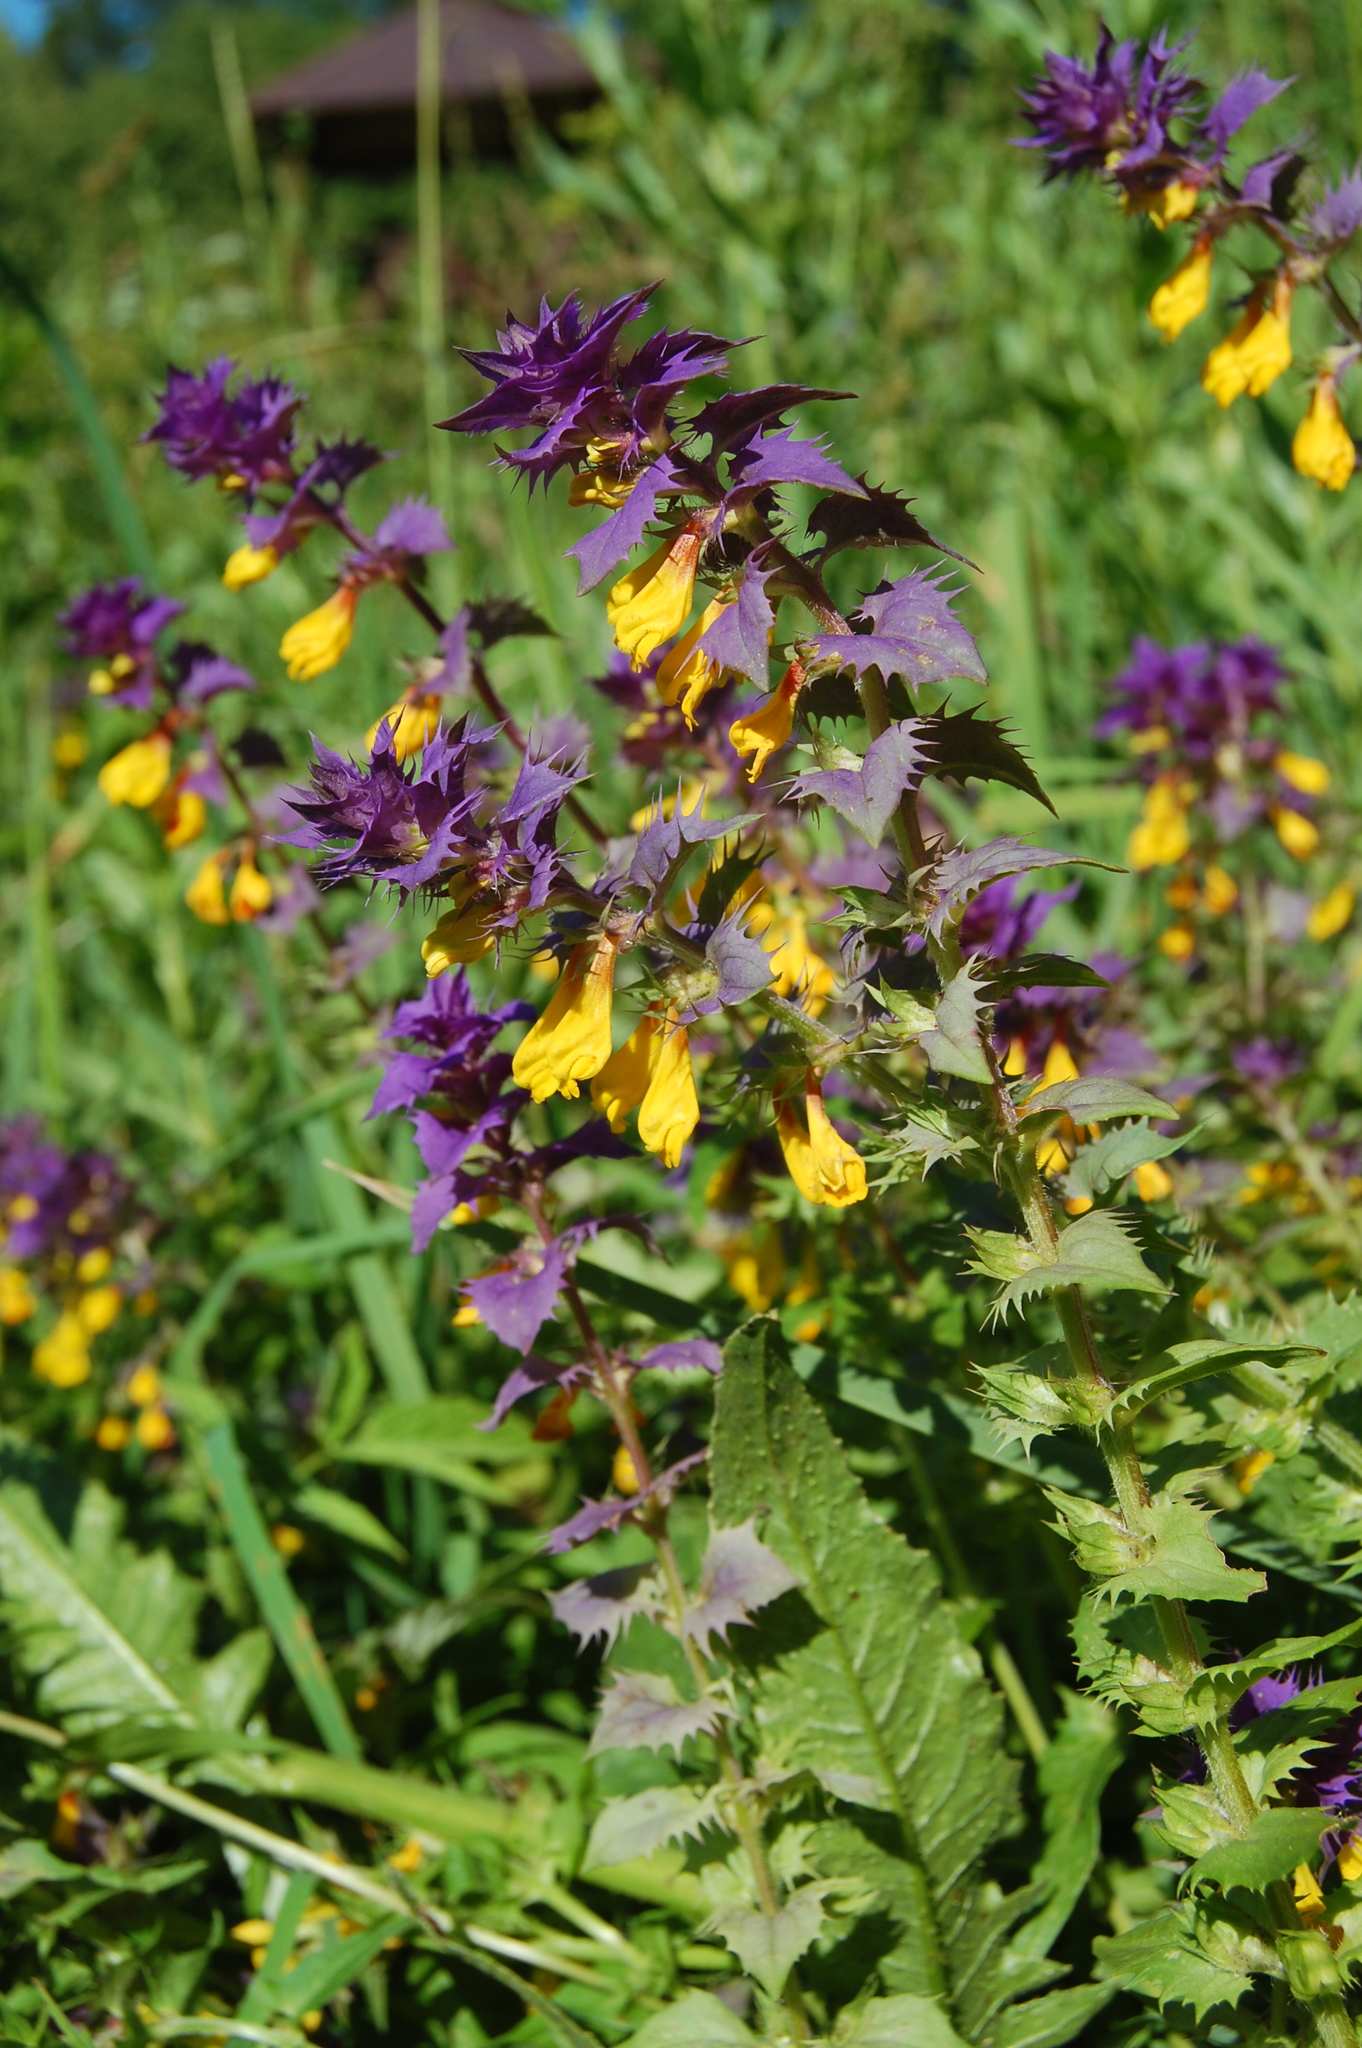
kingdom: Plantae
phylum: Tracheophyta
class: Magnoliopsida
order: Lamiales
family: Orobanchaceae
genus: Melampyrum
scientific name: Melampyrum nemorosum
